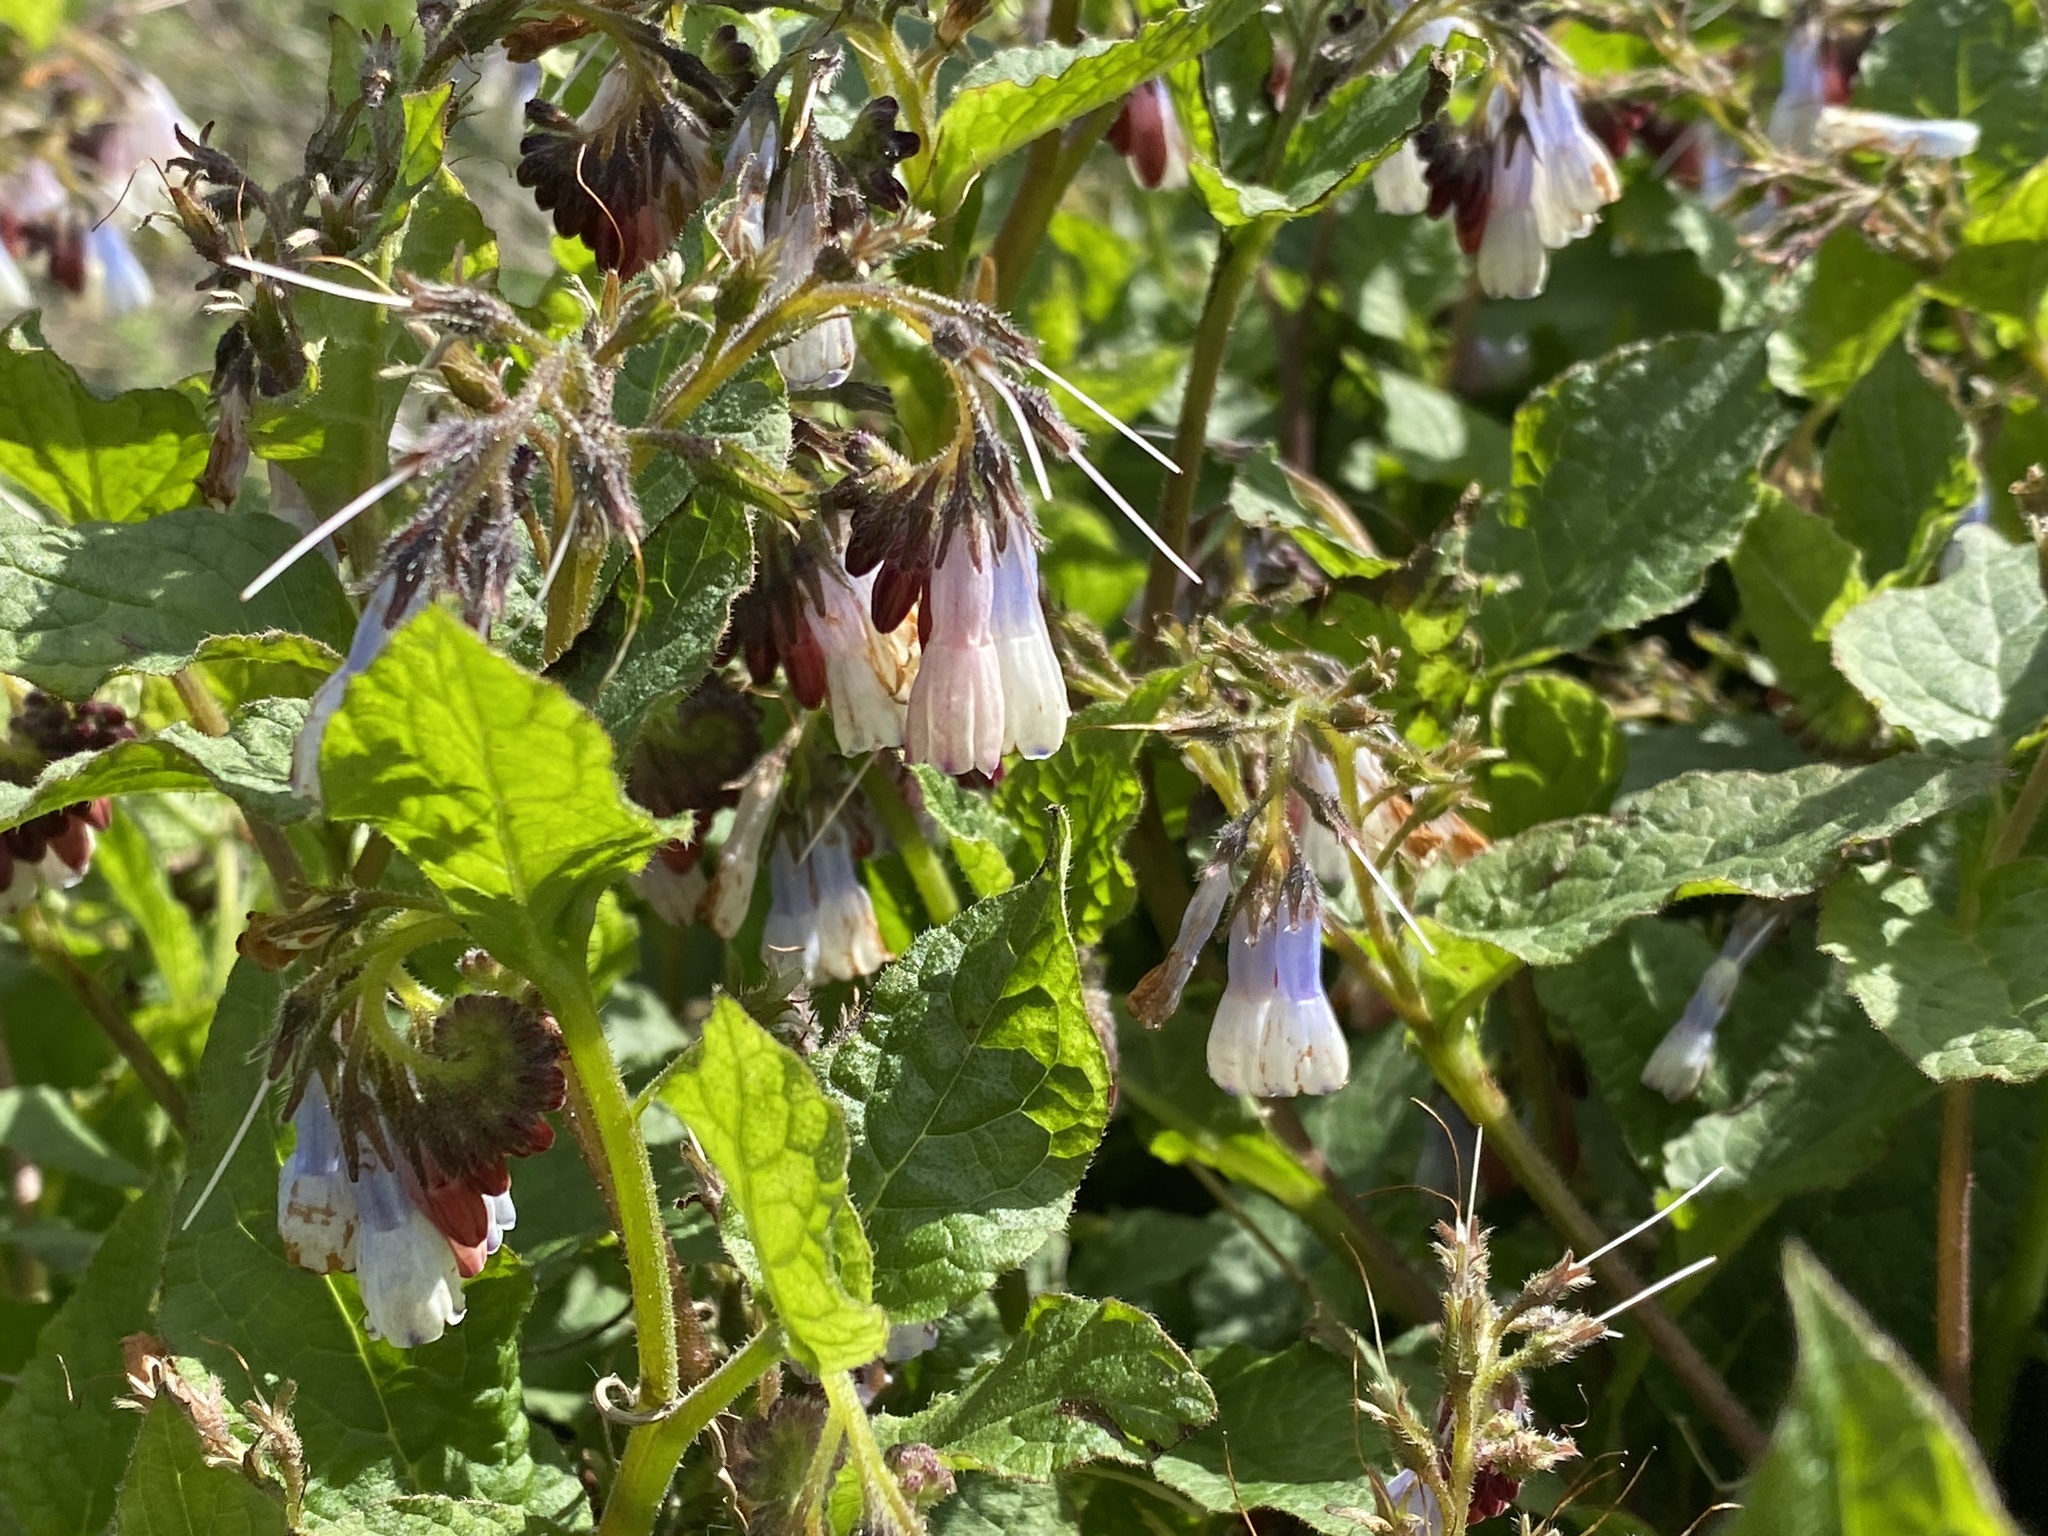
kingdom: Plantae
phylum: Tracheophyta
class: Magnoliopsida
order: Boraginales
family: Boraginaceae
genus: Symphytum
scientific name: Symphytum hidcotense
